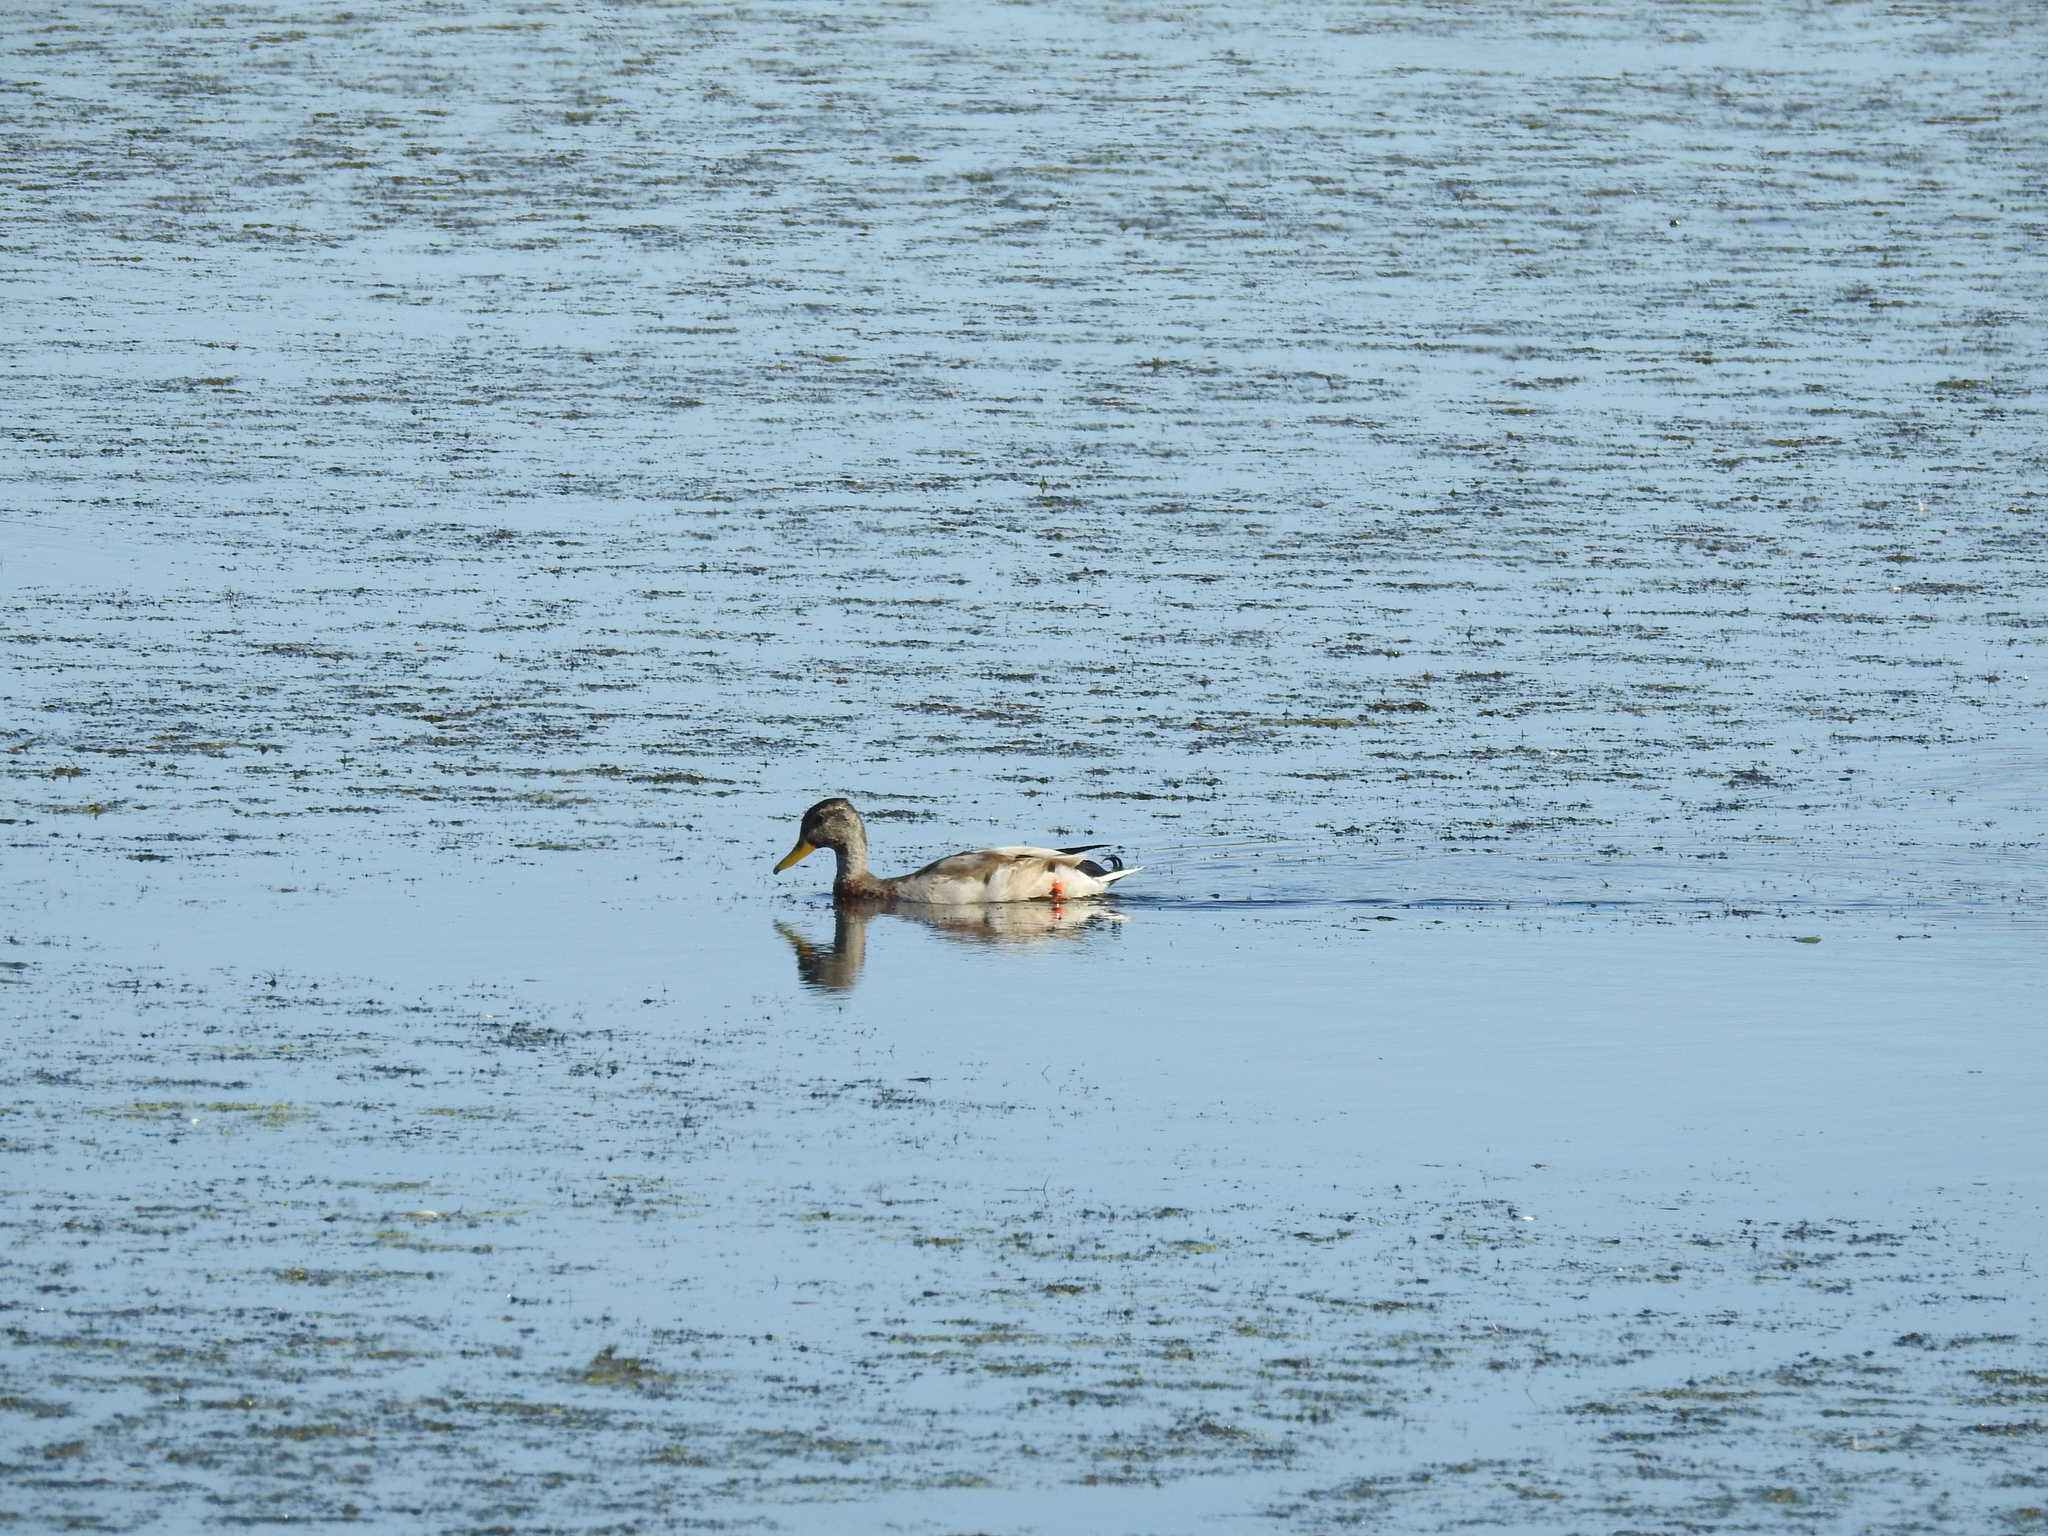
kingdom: Animalia
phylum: Chordata
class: Aves
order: Anseriformes
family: Anatidae
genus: Anas
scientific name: Anas platyrhynchos
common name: Mallard
